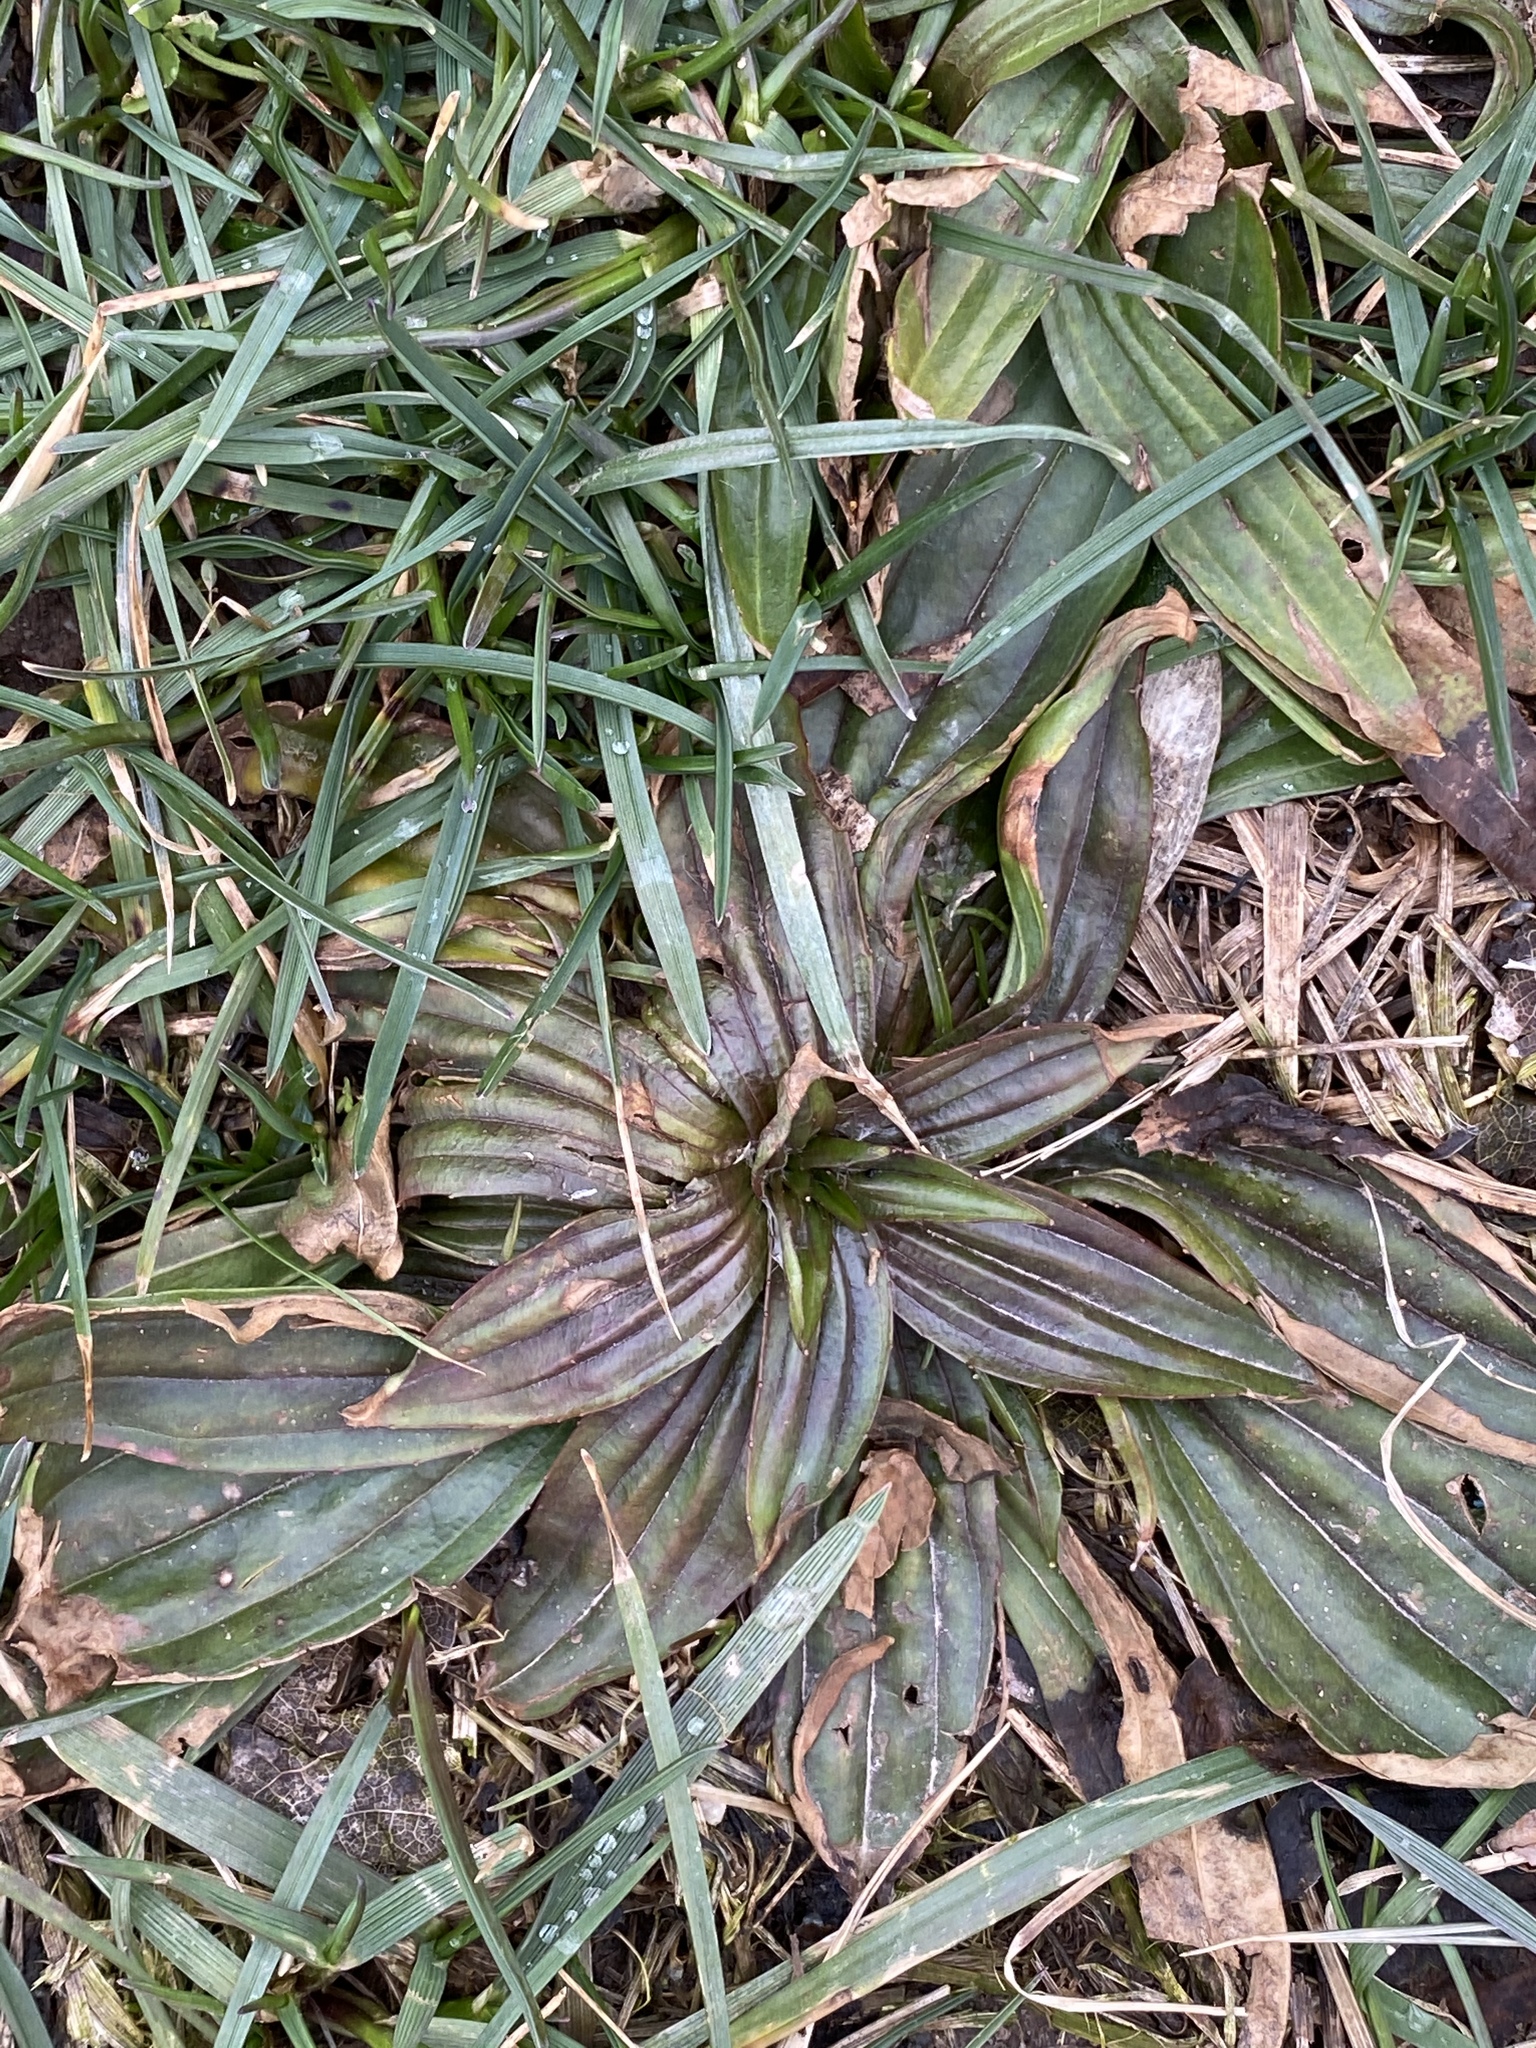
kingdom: Plantae
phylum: Tracheophyta
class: Magnoliopsida
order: Lamiales
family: Plantaginaceae
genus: Plantago
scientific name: Plantago lanceolata
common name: Ribwort plantain
